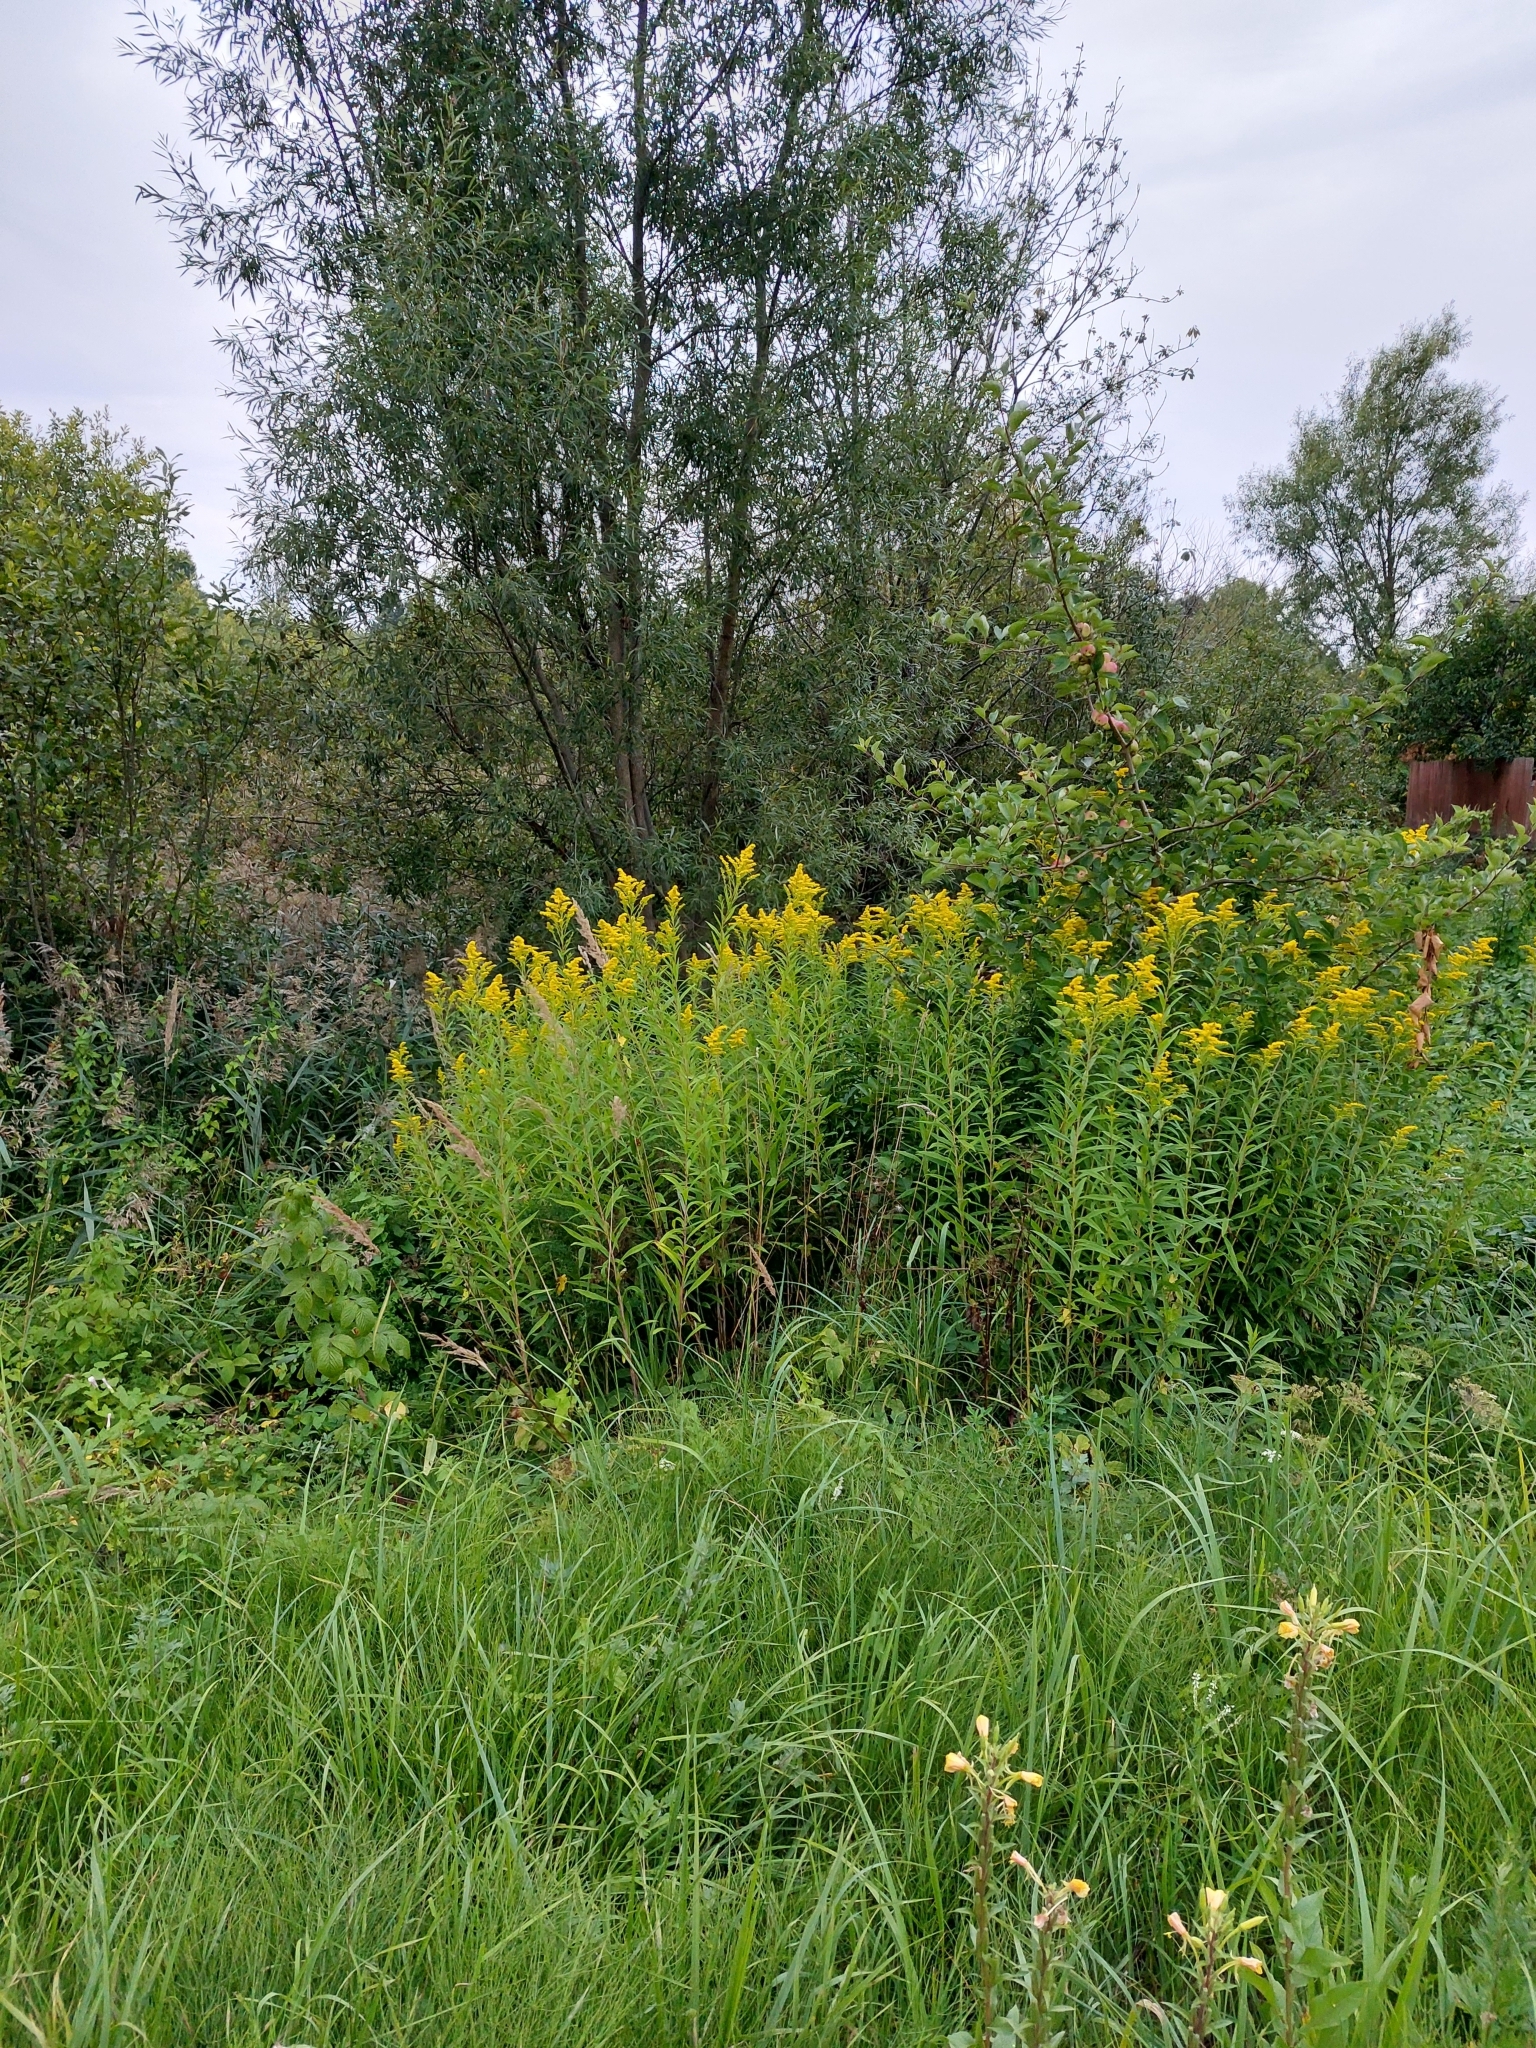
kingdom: Plantae
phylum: Tracheophyta
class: Magnoliopsida
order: Asterales
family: Asteraceae
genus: Solidago
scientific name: Solidago gigantea
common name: Giant goldenrod
